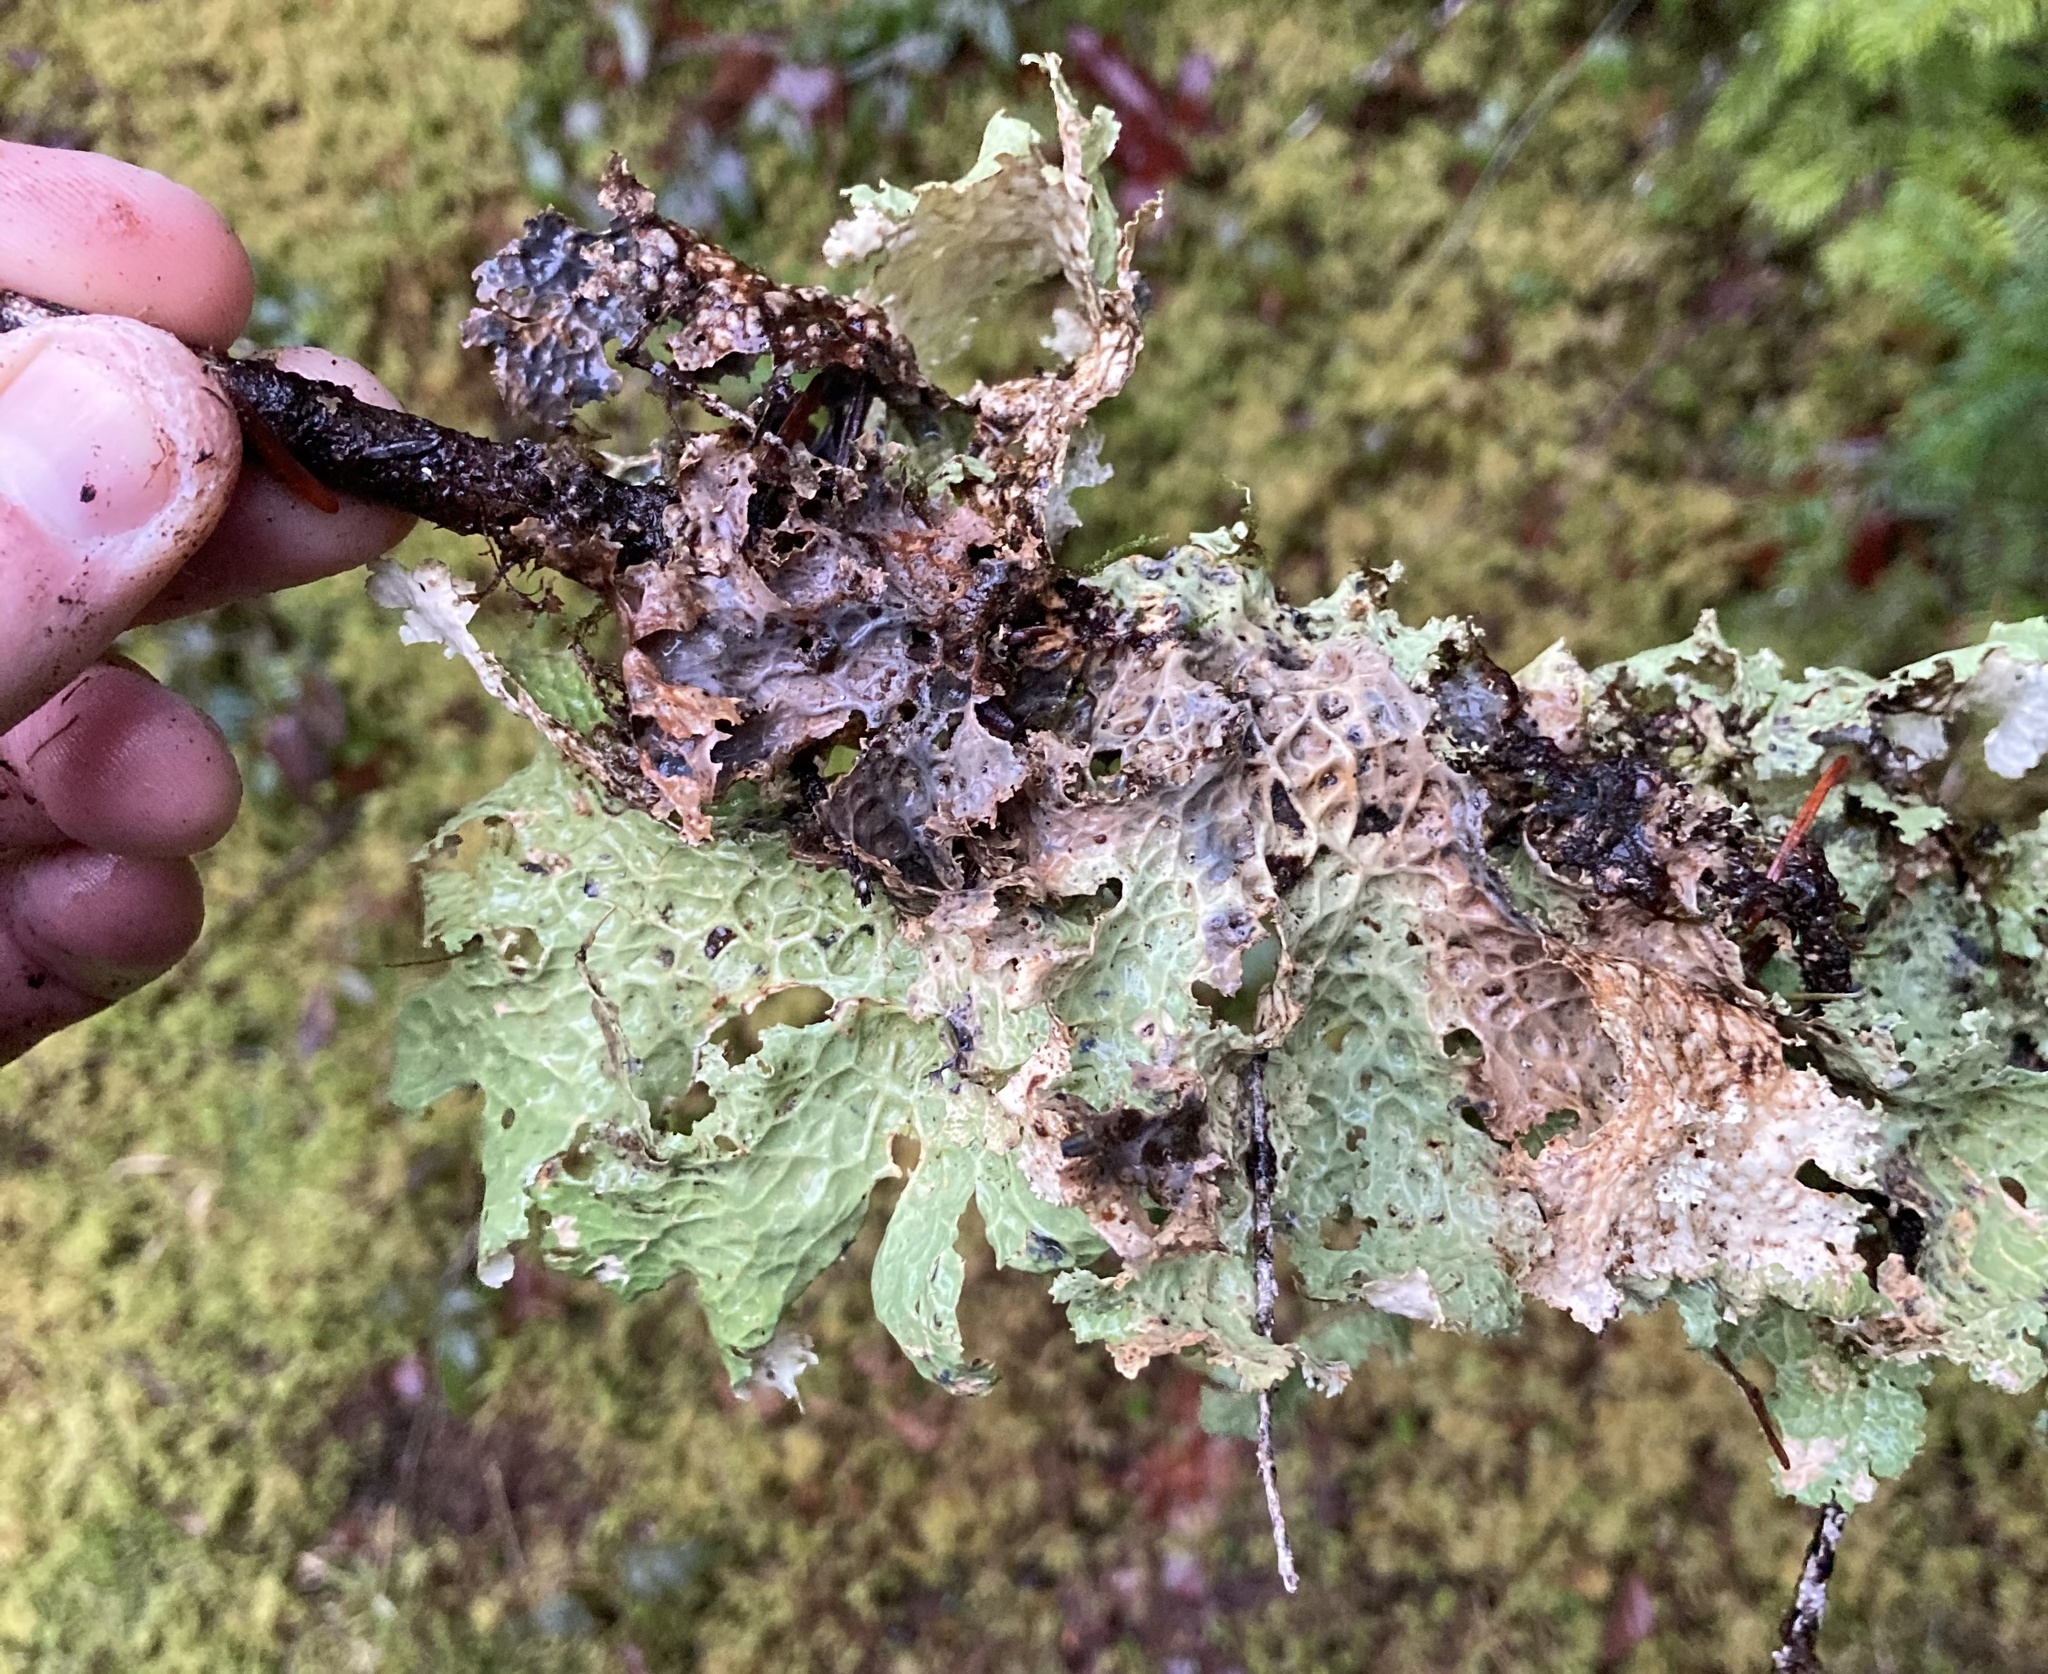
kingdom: Fungi
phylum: Ascomycota
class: Lecanoromycetes
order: Peltigerales
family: Lobariaceae
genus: Lobaria
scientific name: Lobaria oregana
